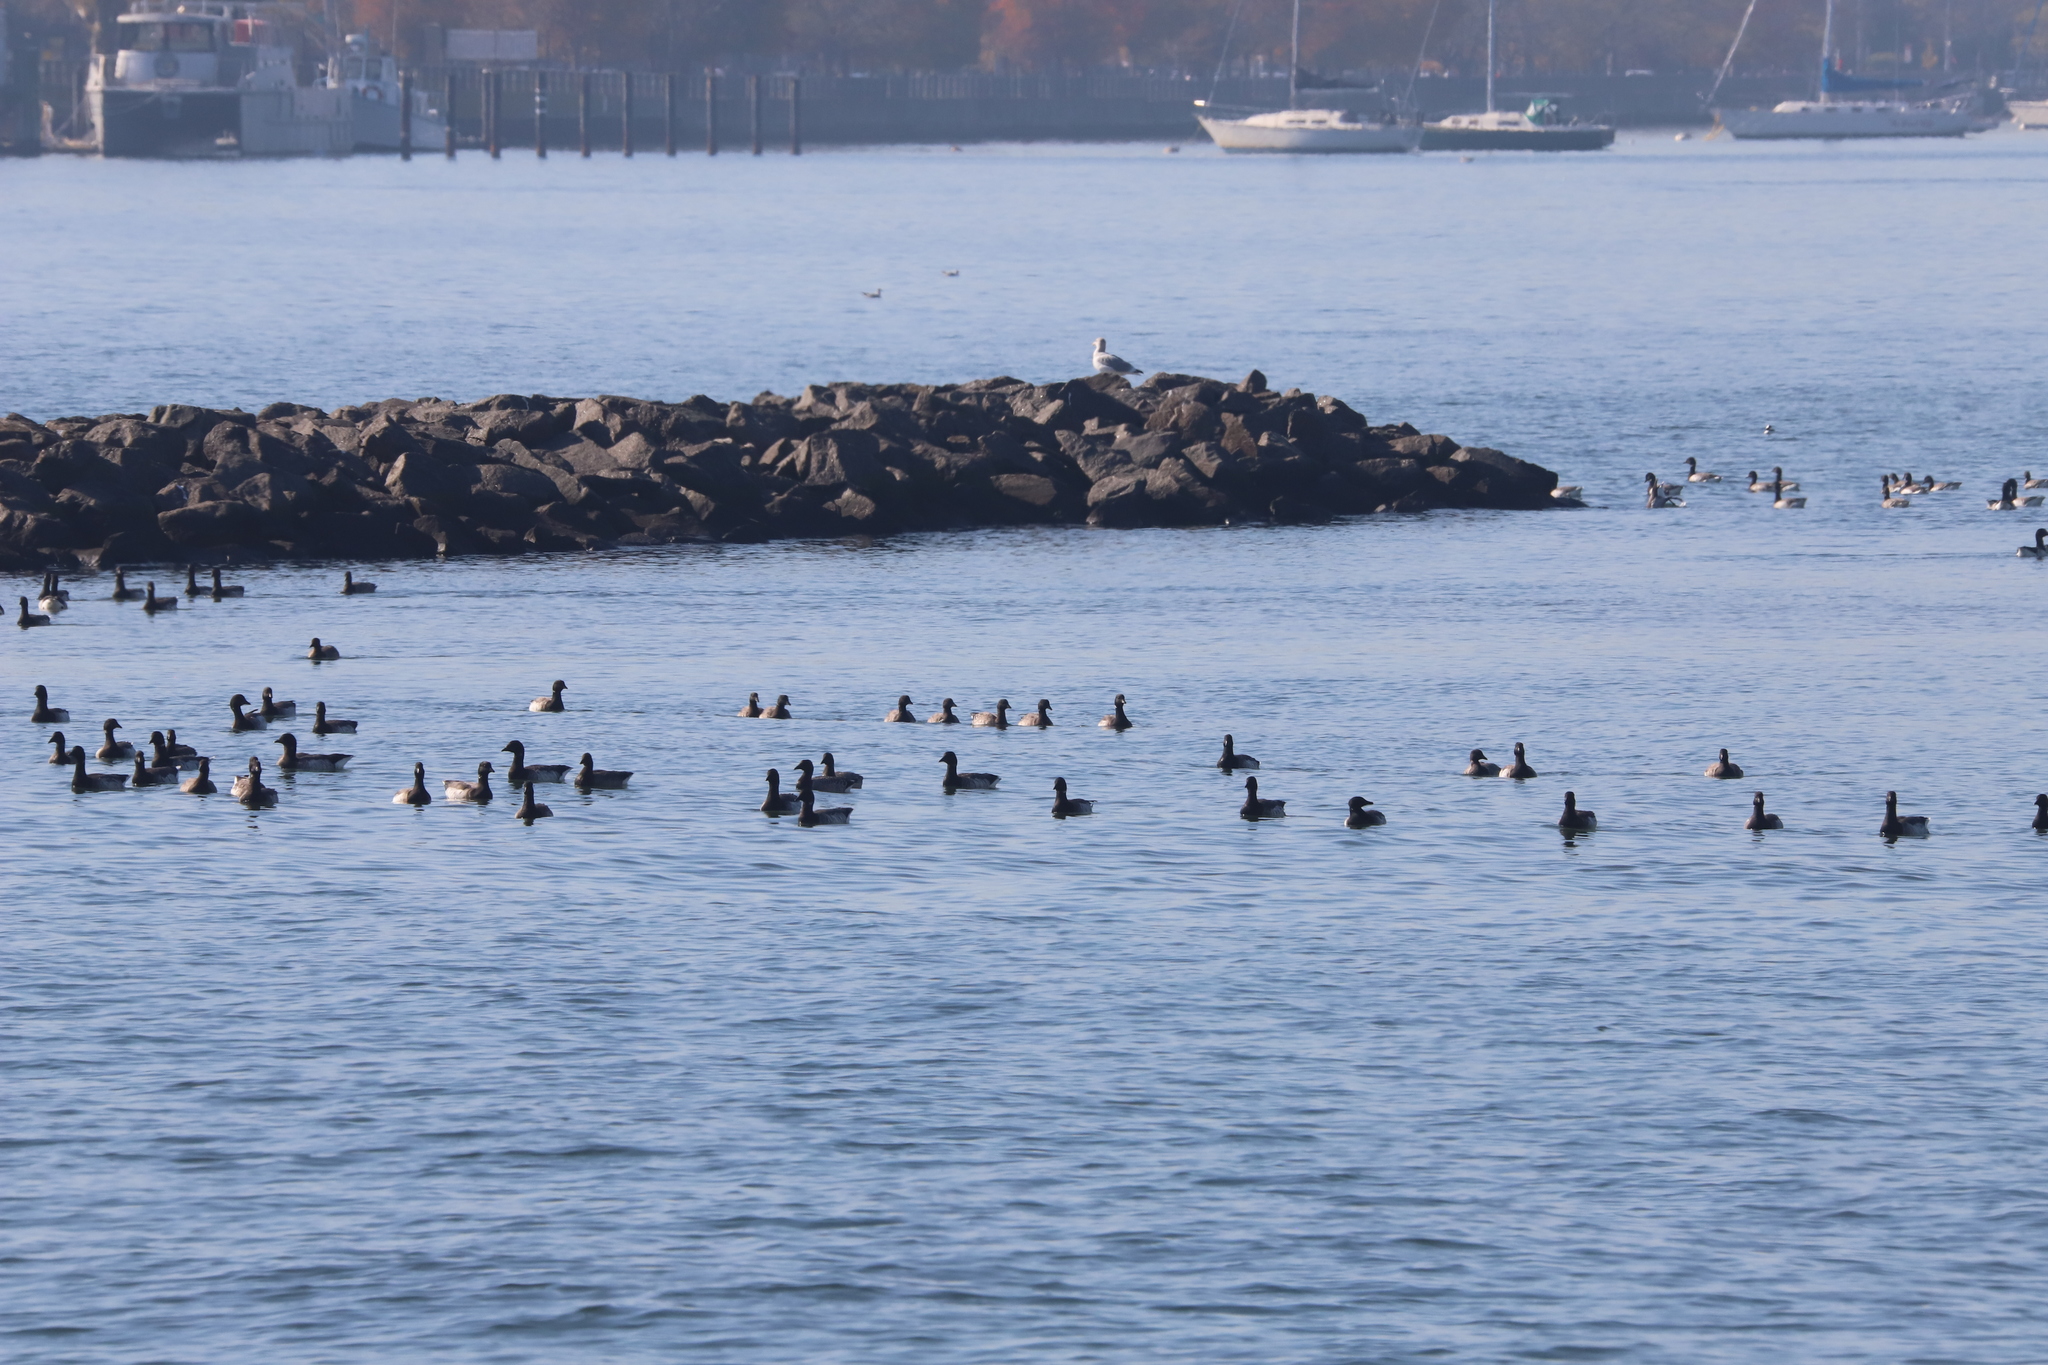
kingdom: Animalia
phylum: Chordata
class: Aves
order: Anseriformes
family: Anatidae
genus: Branta
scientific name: Branta bernicla
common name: Brant goose
